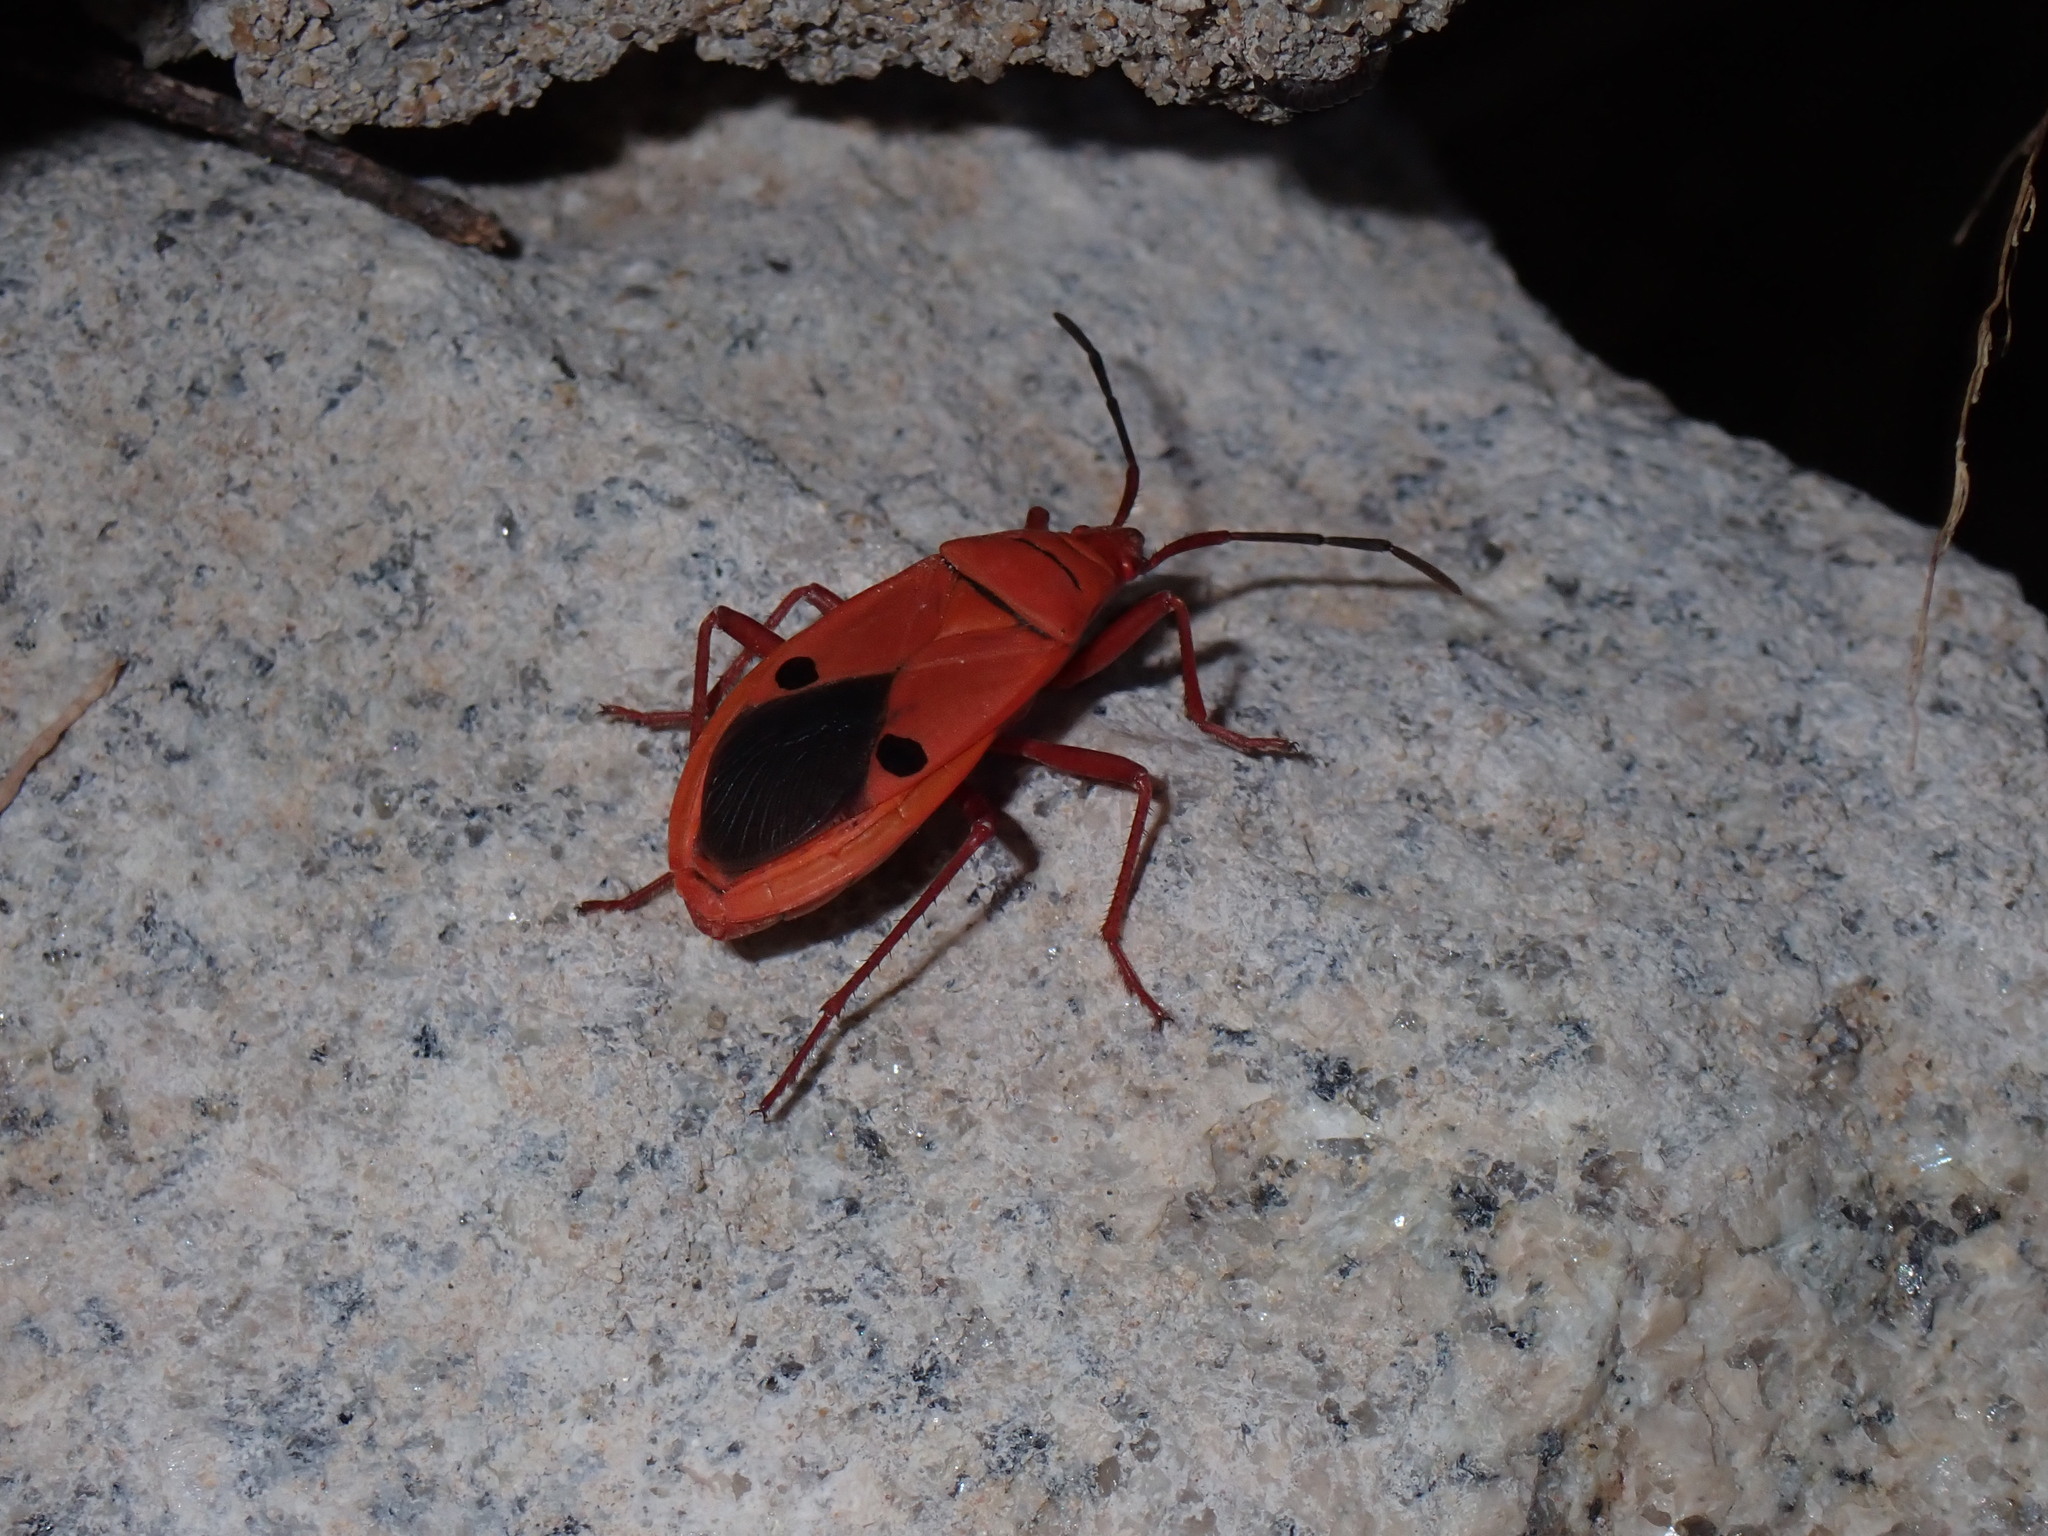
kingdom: Animalia
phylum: Arthropoda
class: Insecta
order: Hemiptera
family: Pyrrhocoridae
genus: Probergrothius
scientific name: Probergrothius nigricornis
